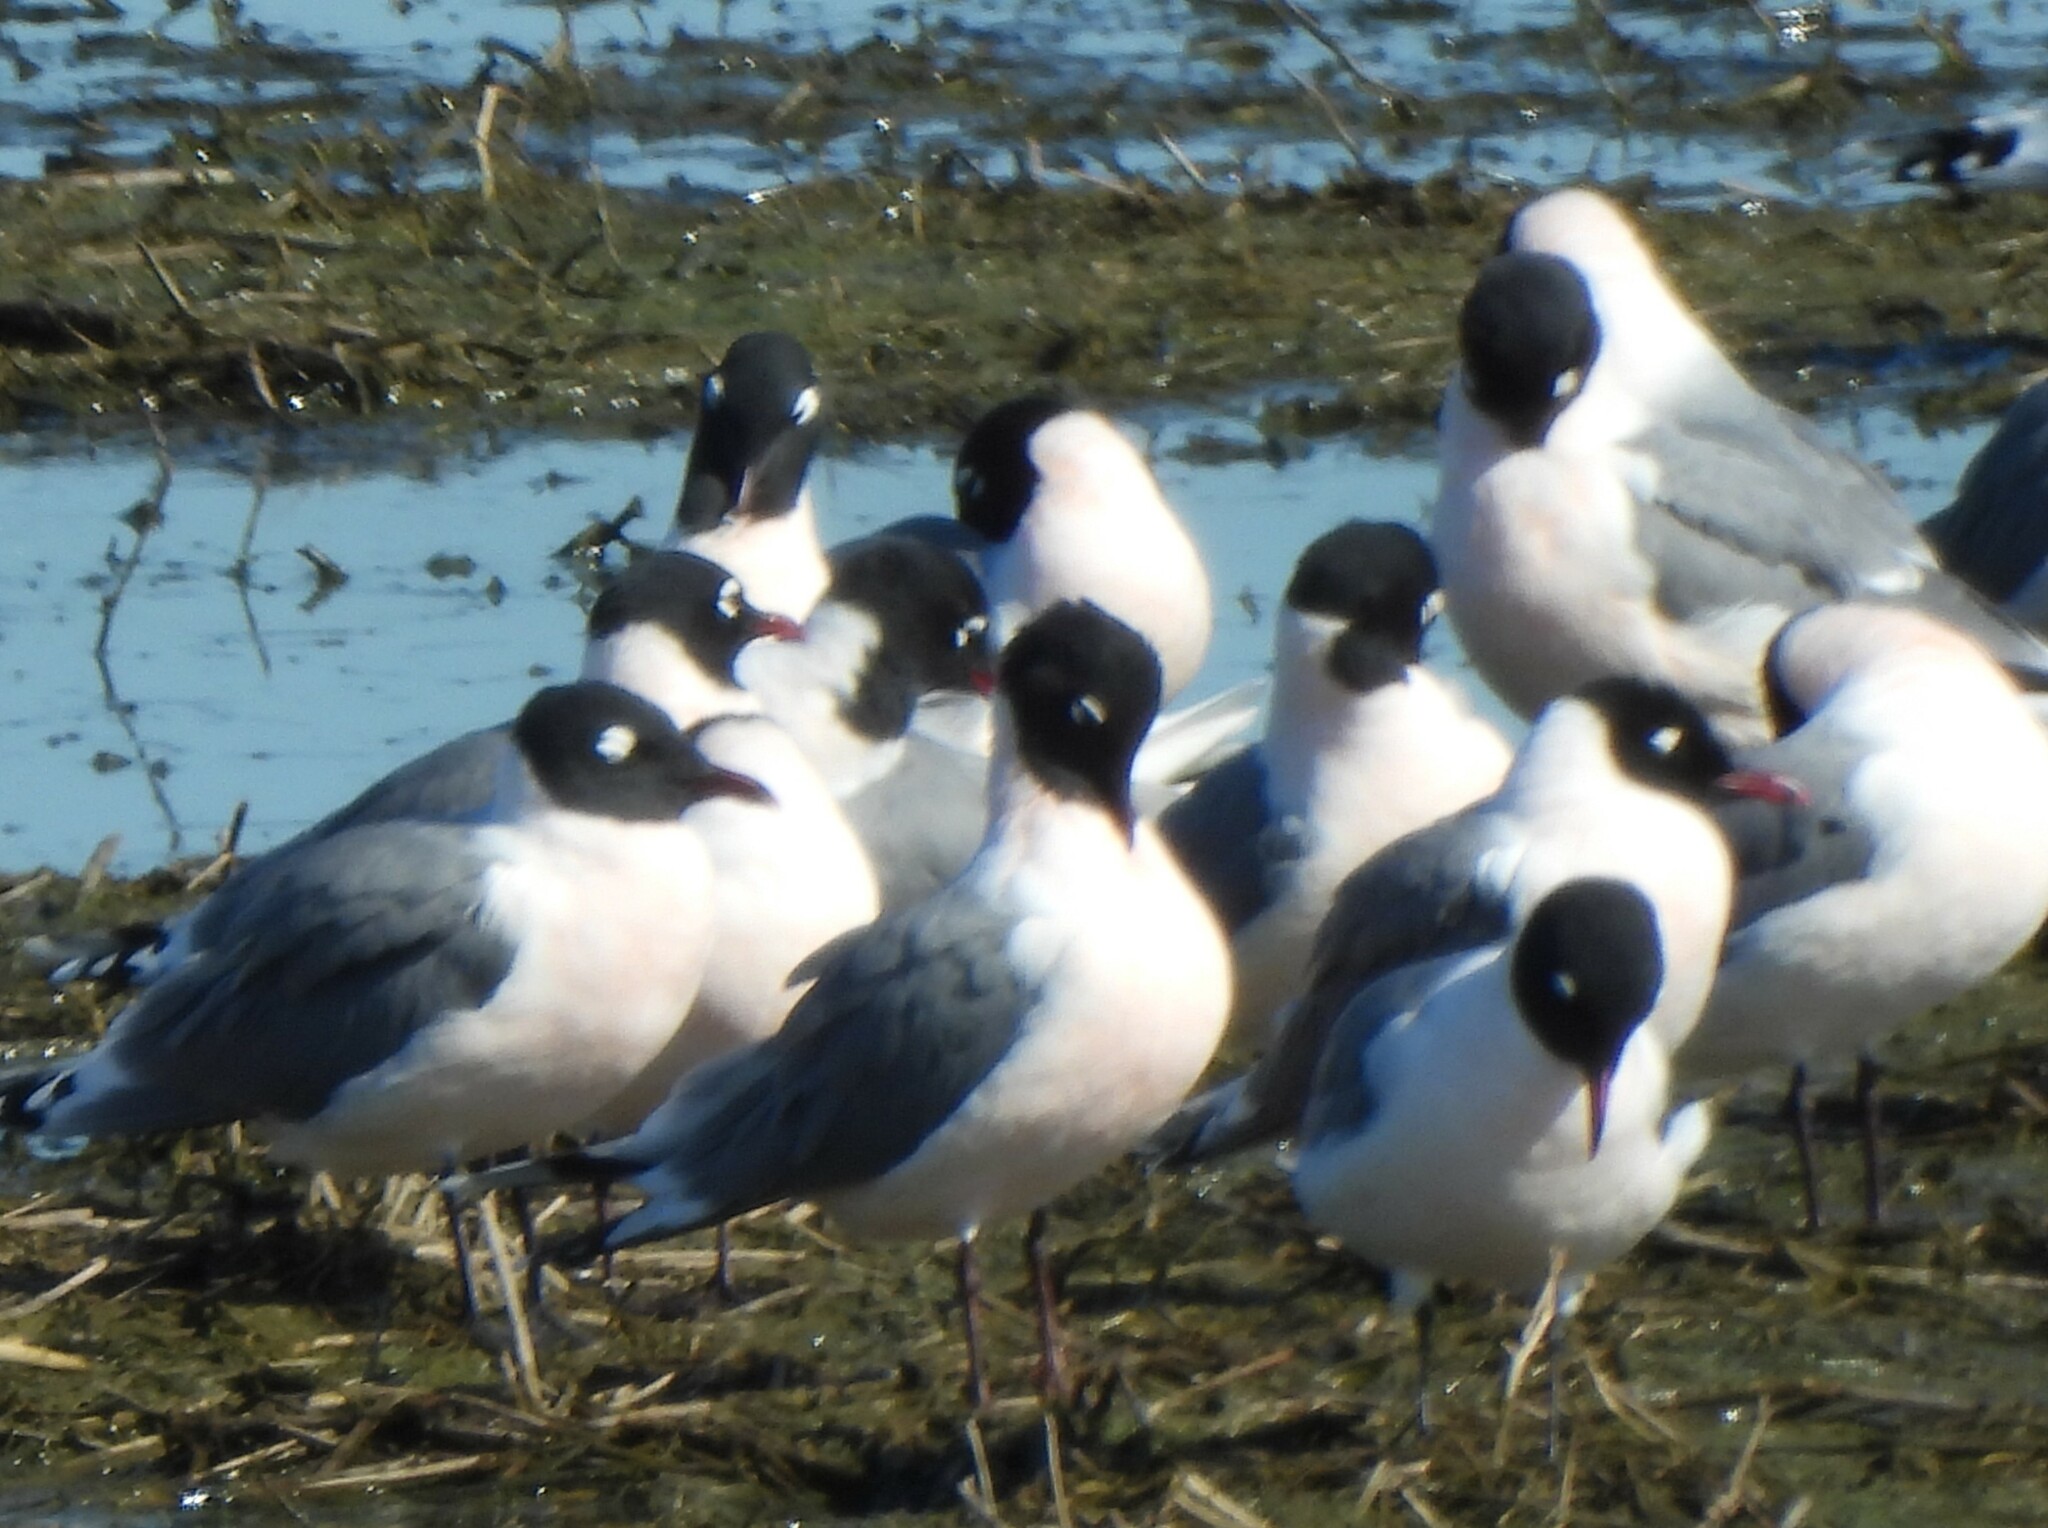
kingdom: Animalia
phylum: Chordata
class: Aves
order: Charadriiformes
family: Laridae
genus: Leucophaeus
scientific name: Leucophaeus pipixcan
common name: Franklin's gull
